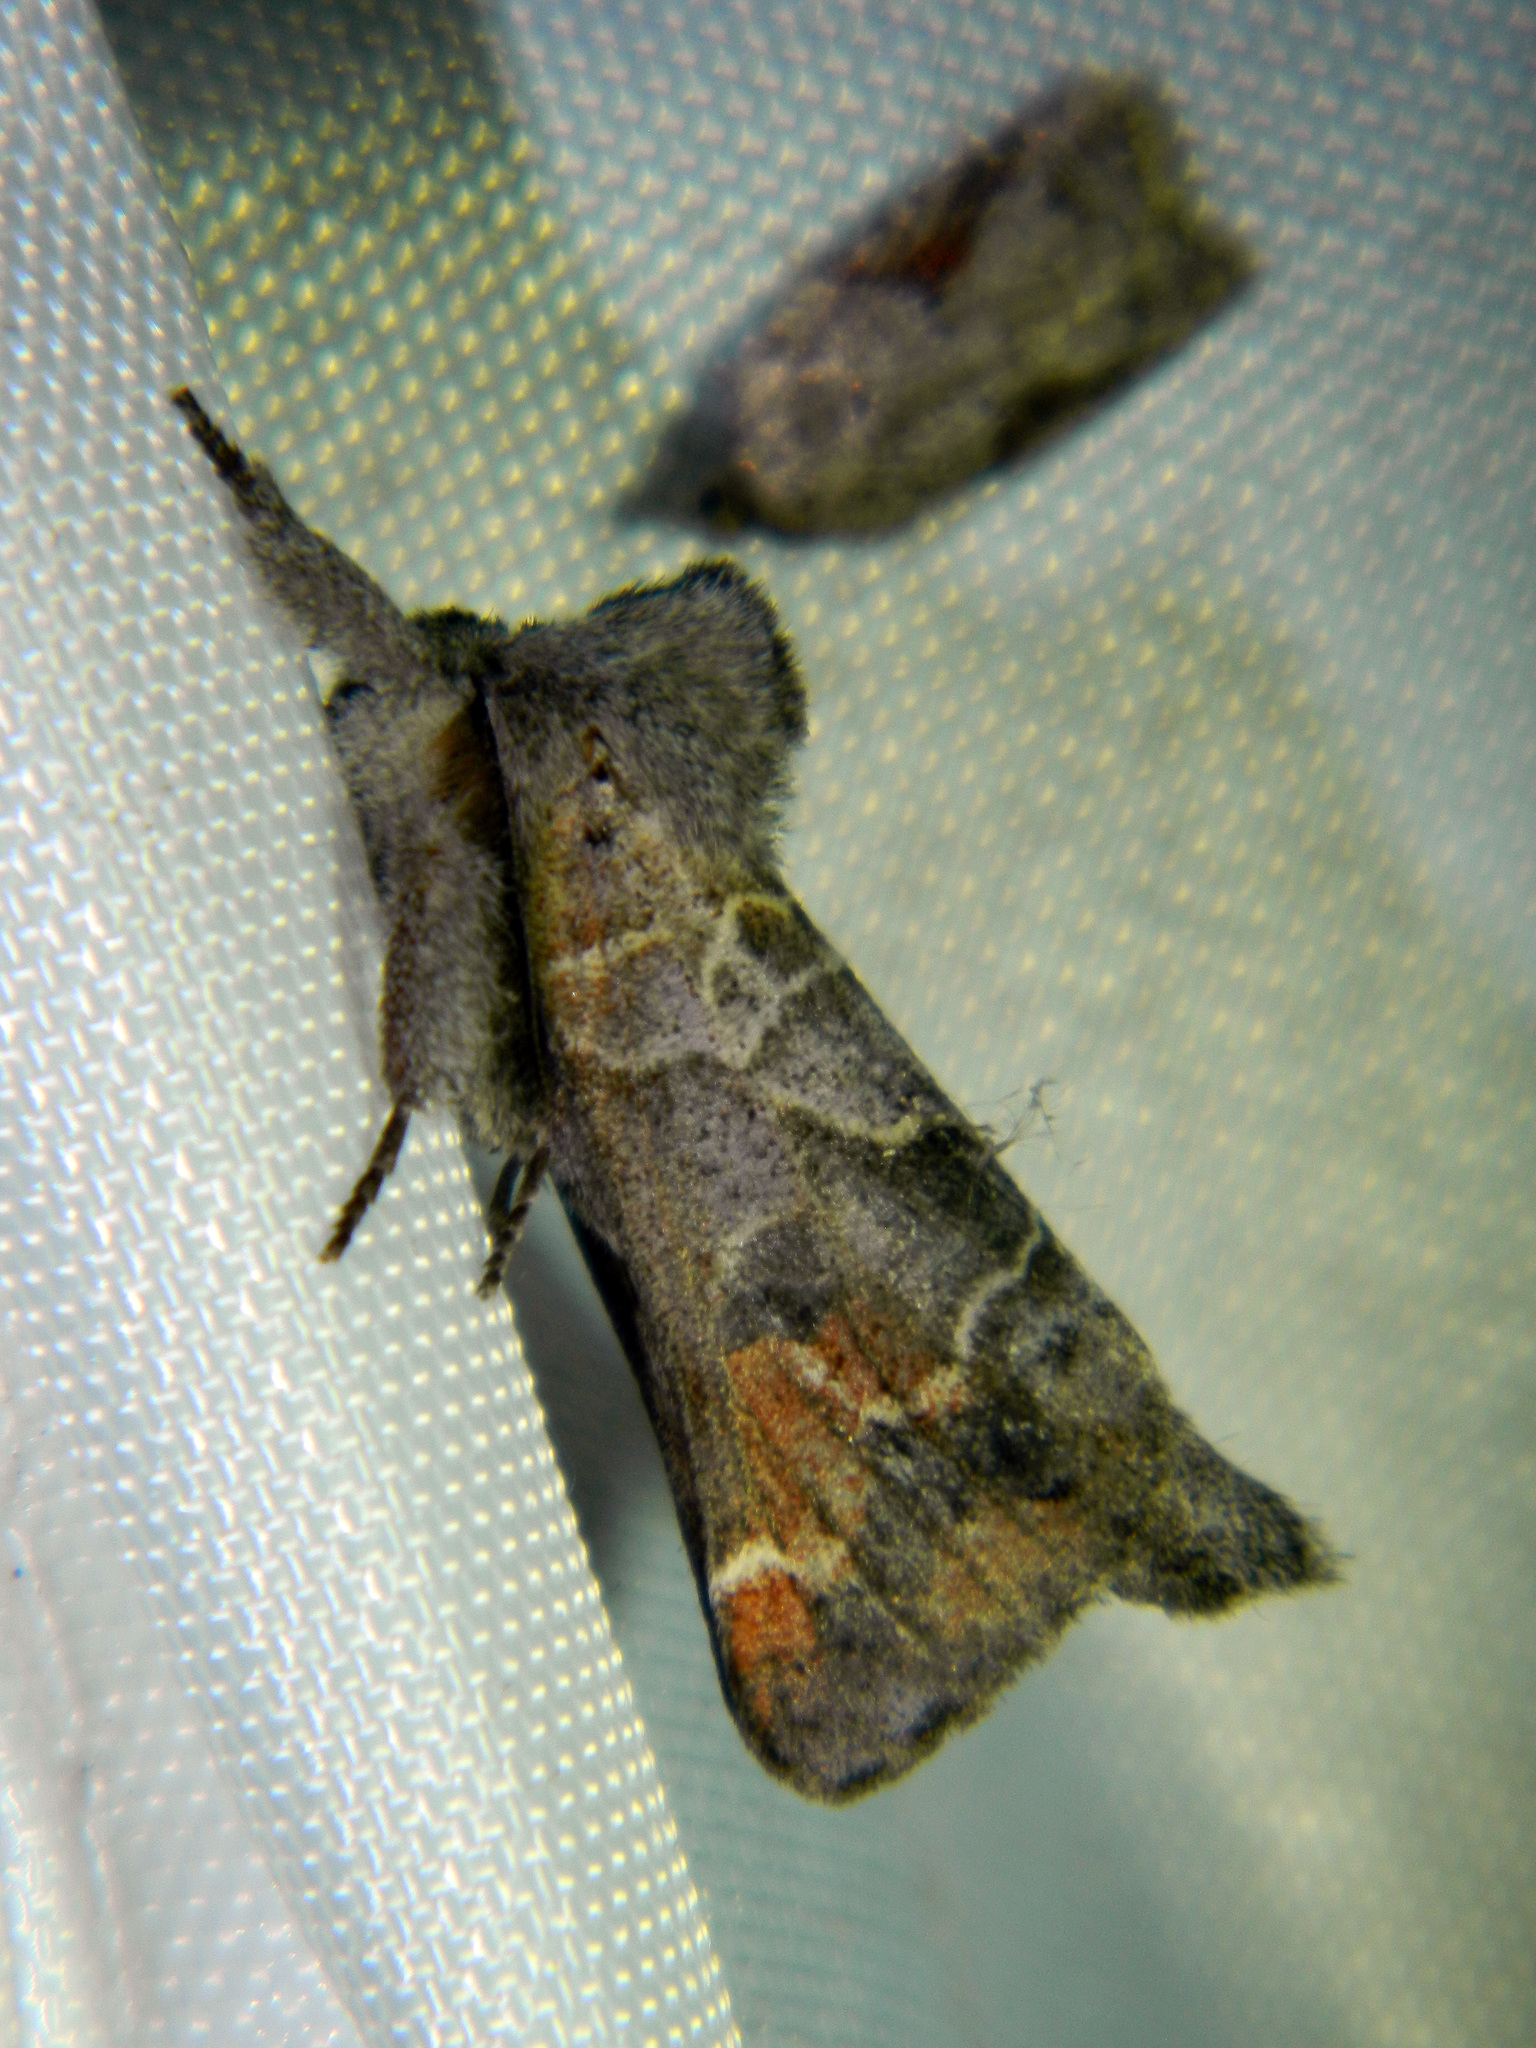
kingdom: Animalia
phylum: Arthropoda
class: Insecta
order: Lepidoptera
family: Notodontidae
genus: Clostera
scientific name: Clostera apicalis
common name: Apical prominent
